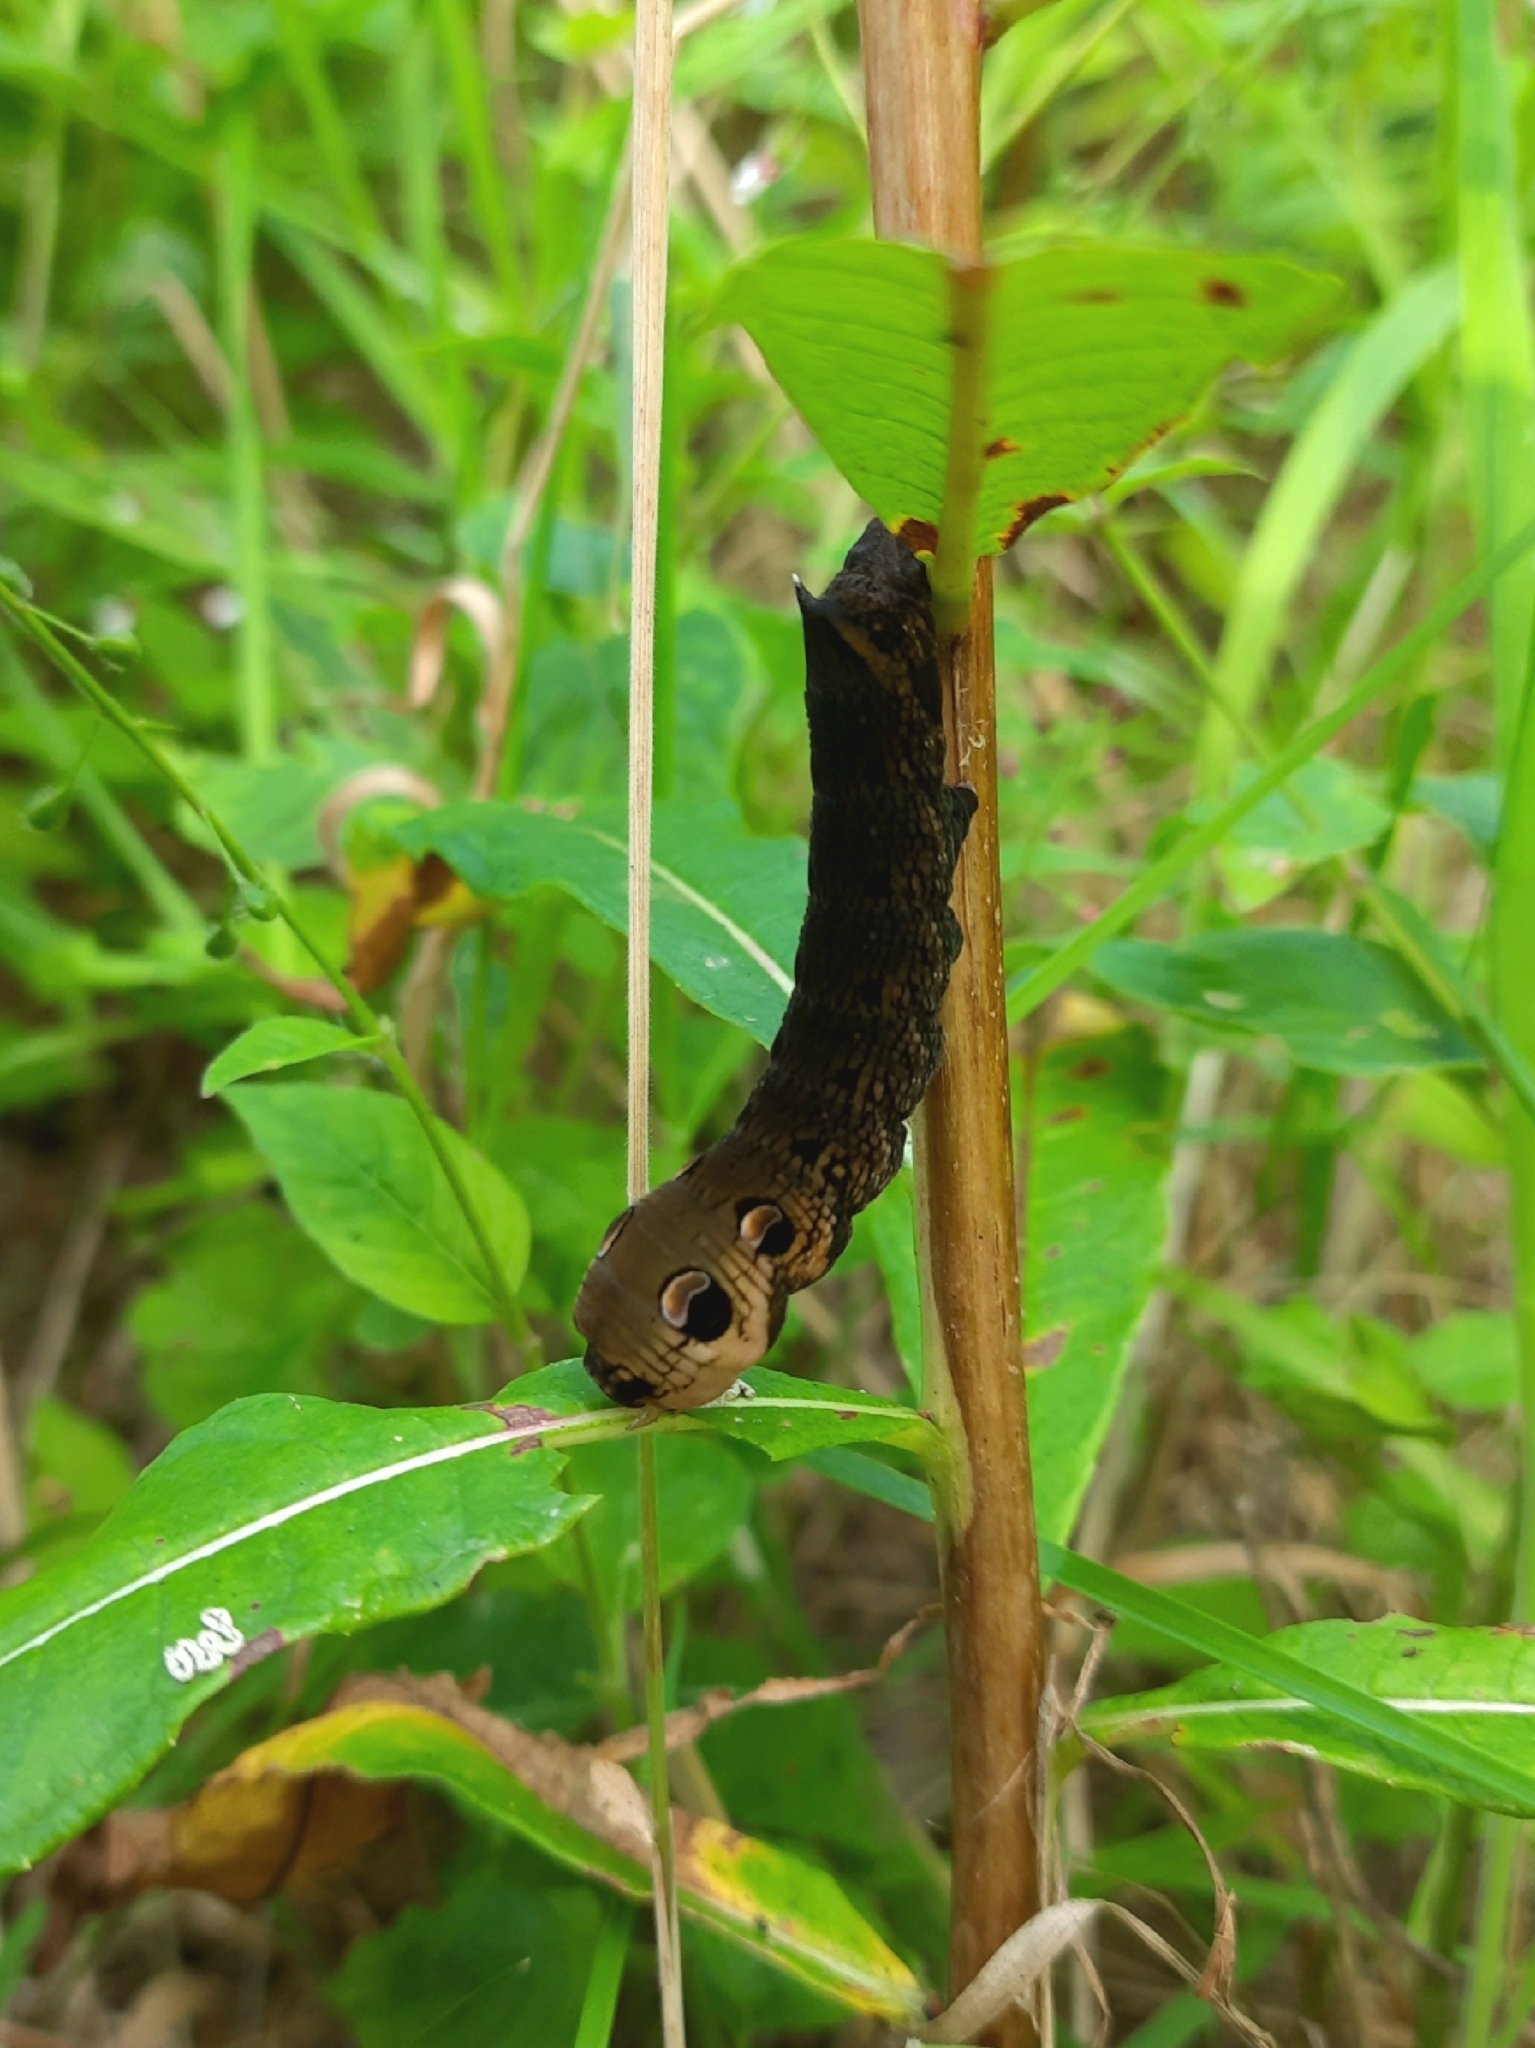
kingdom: Animalia
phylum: Arthropoda
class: Insecta
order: Lepidoptera
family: Sphingidae
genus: Deilephila
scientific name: Deilephila elpenor
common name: Elephant hawk-moth
